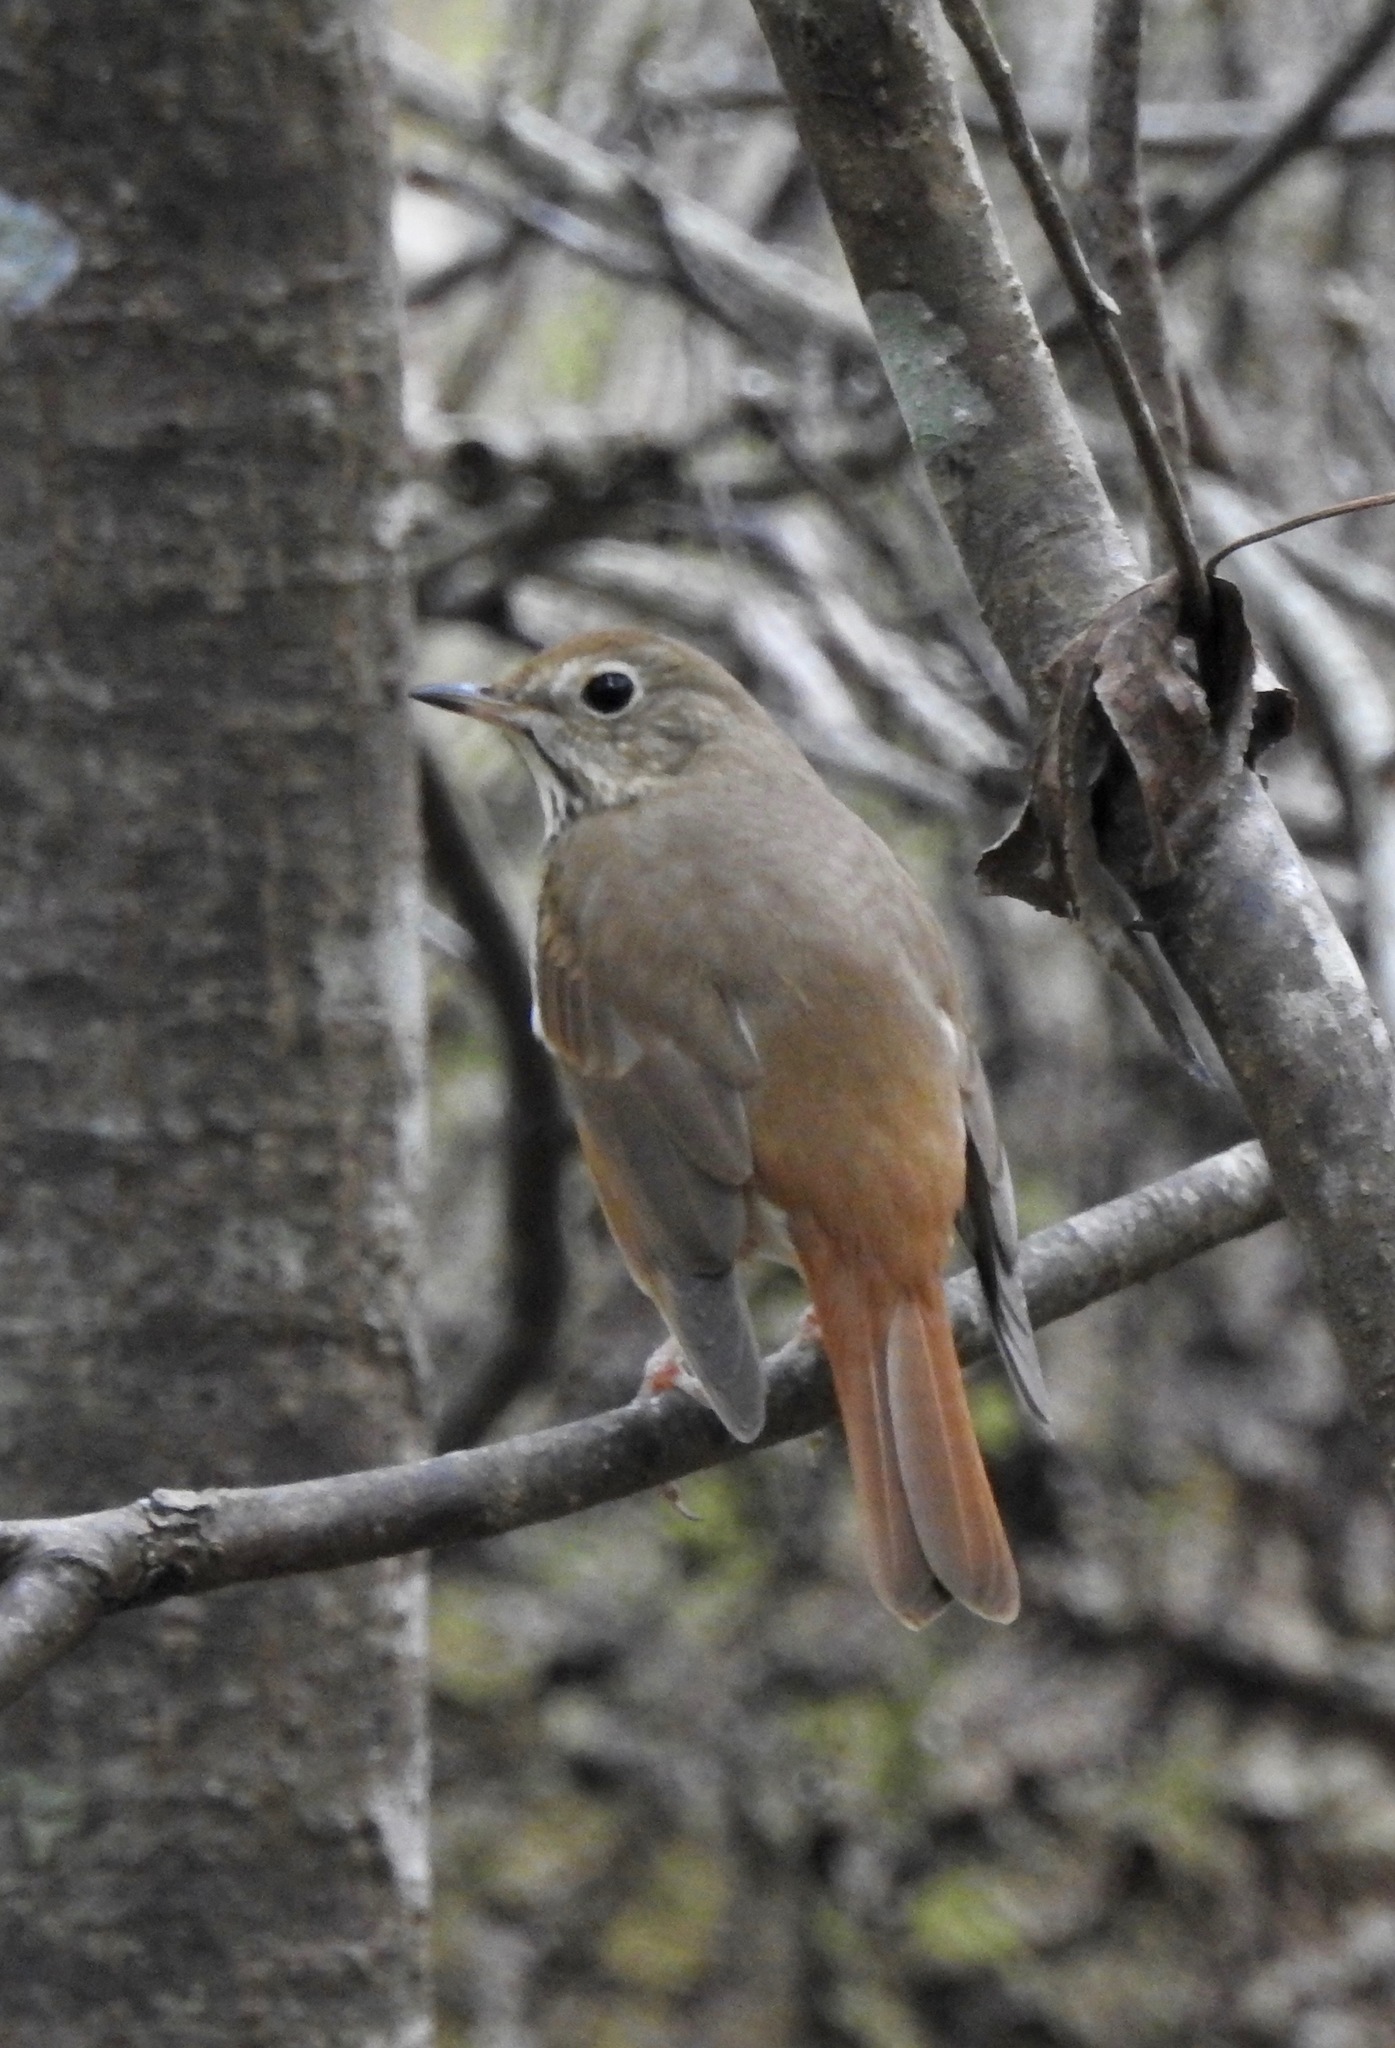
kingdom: Animalia
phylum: Chordata
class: Aves
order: Passeriformes
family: Turdidae
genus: Catharus
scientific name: Catharus guttatus
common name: Hermit thrush
